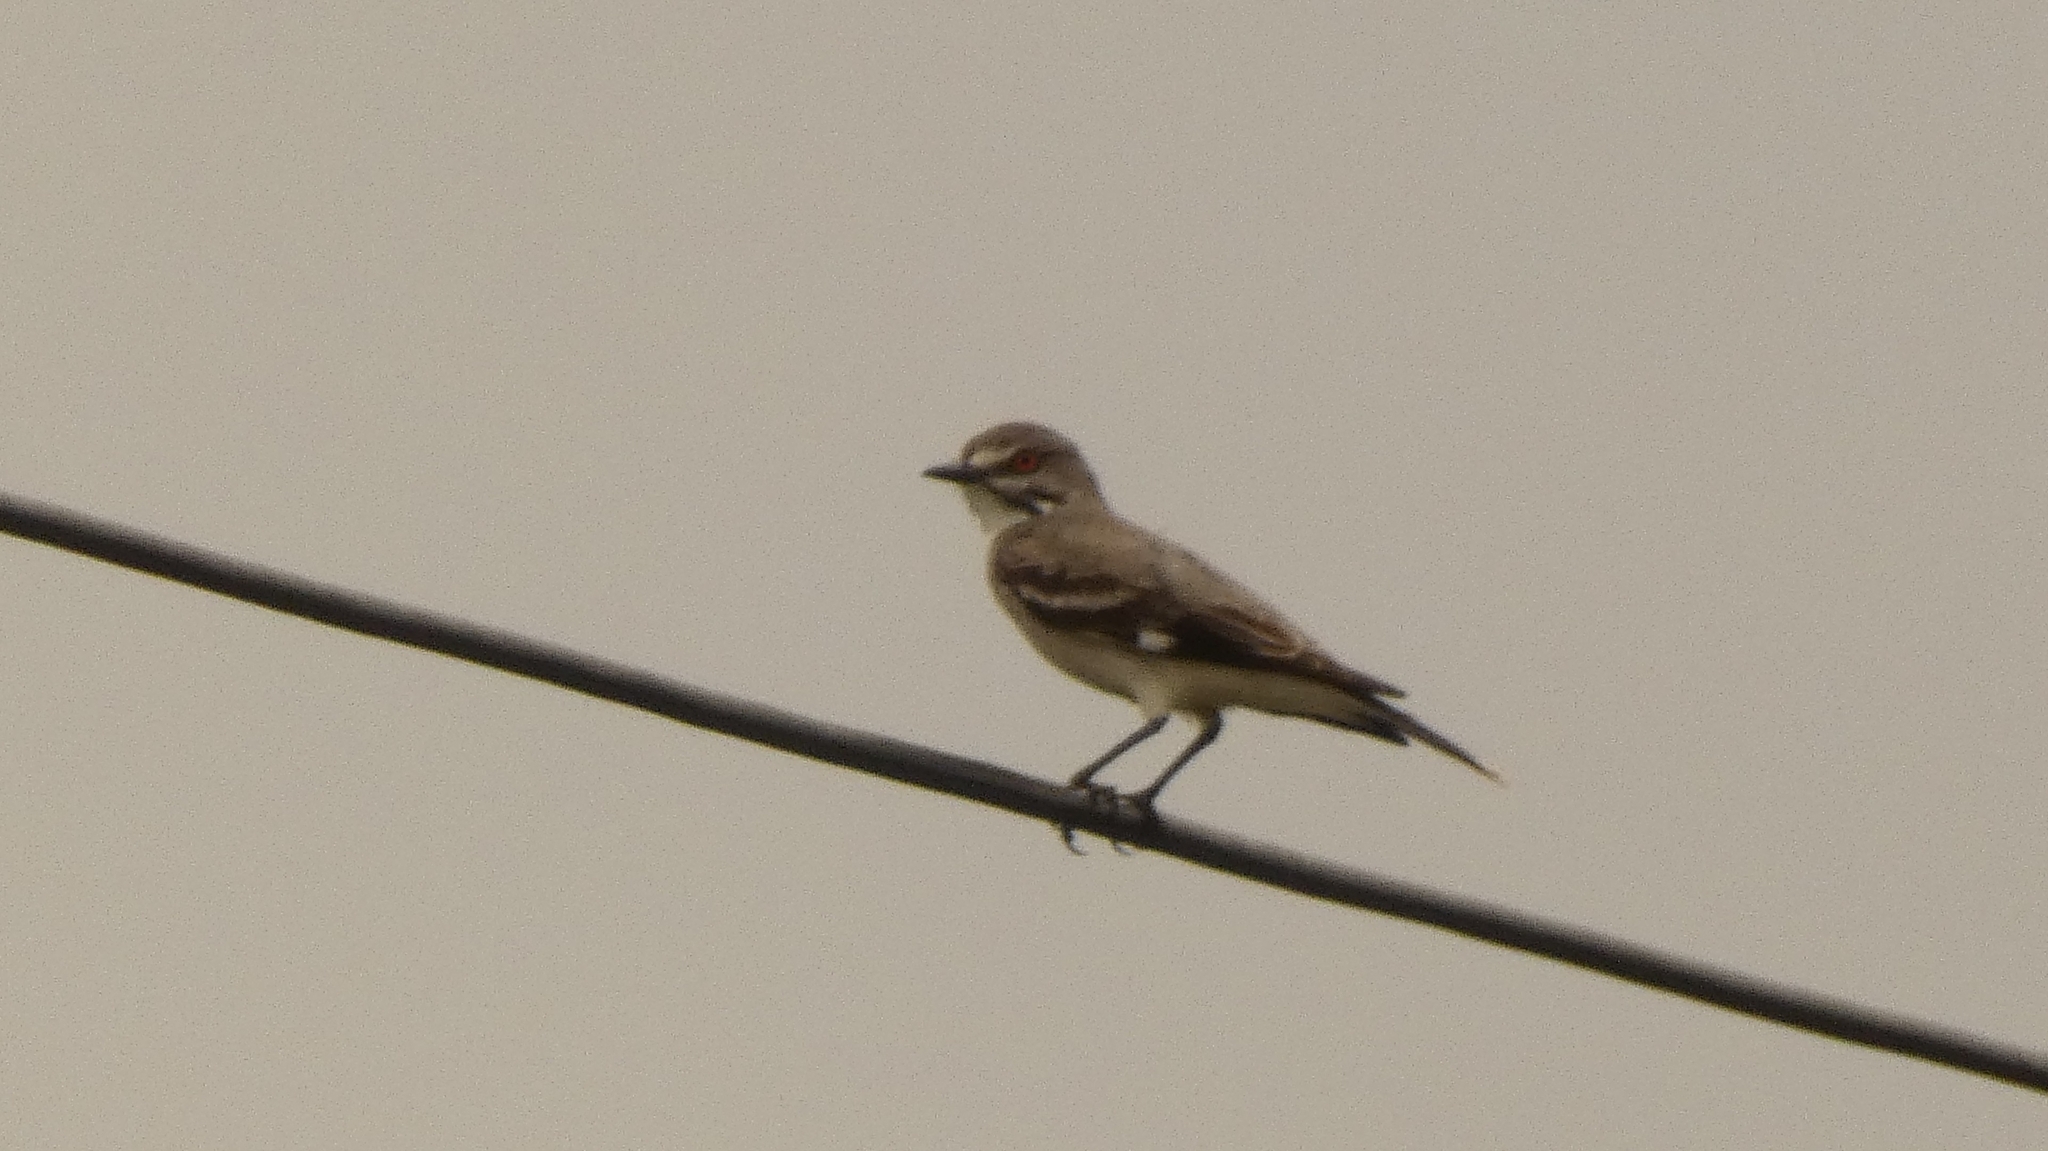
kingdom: Animalia
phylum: Chordata
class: Aves
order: Passeriformes
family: Tyrannidae
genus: Xolmis
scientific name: Xolmis cinereus
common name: Grey monjita
